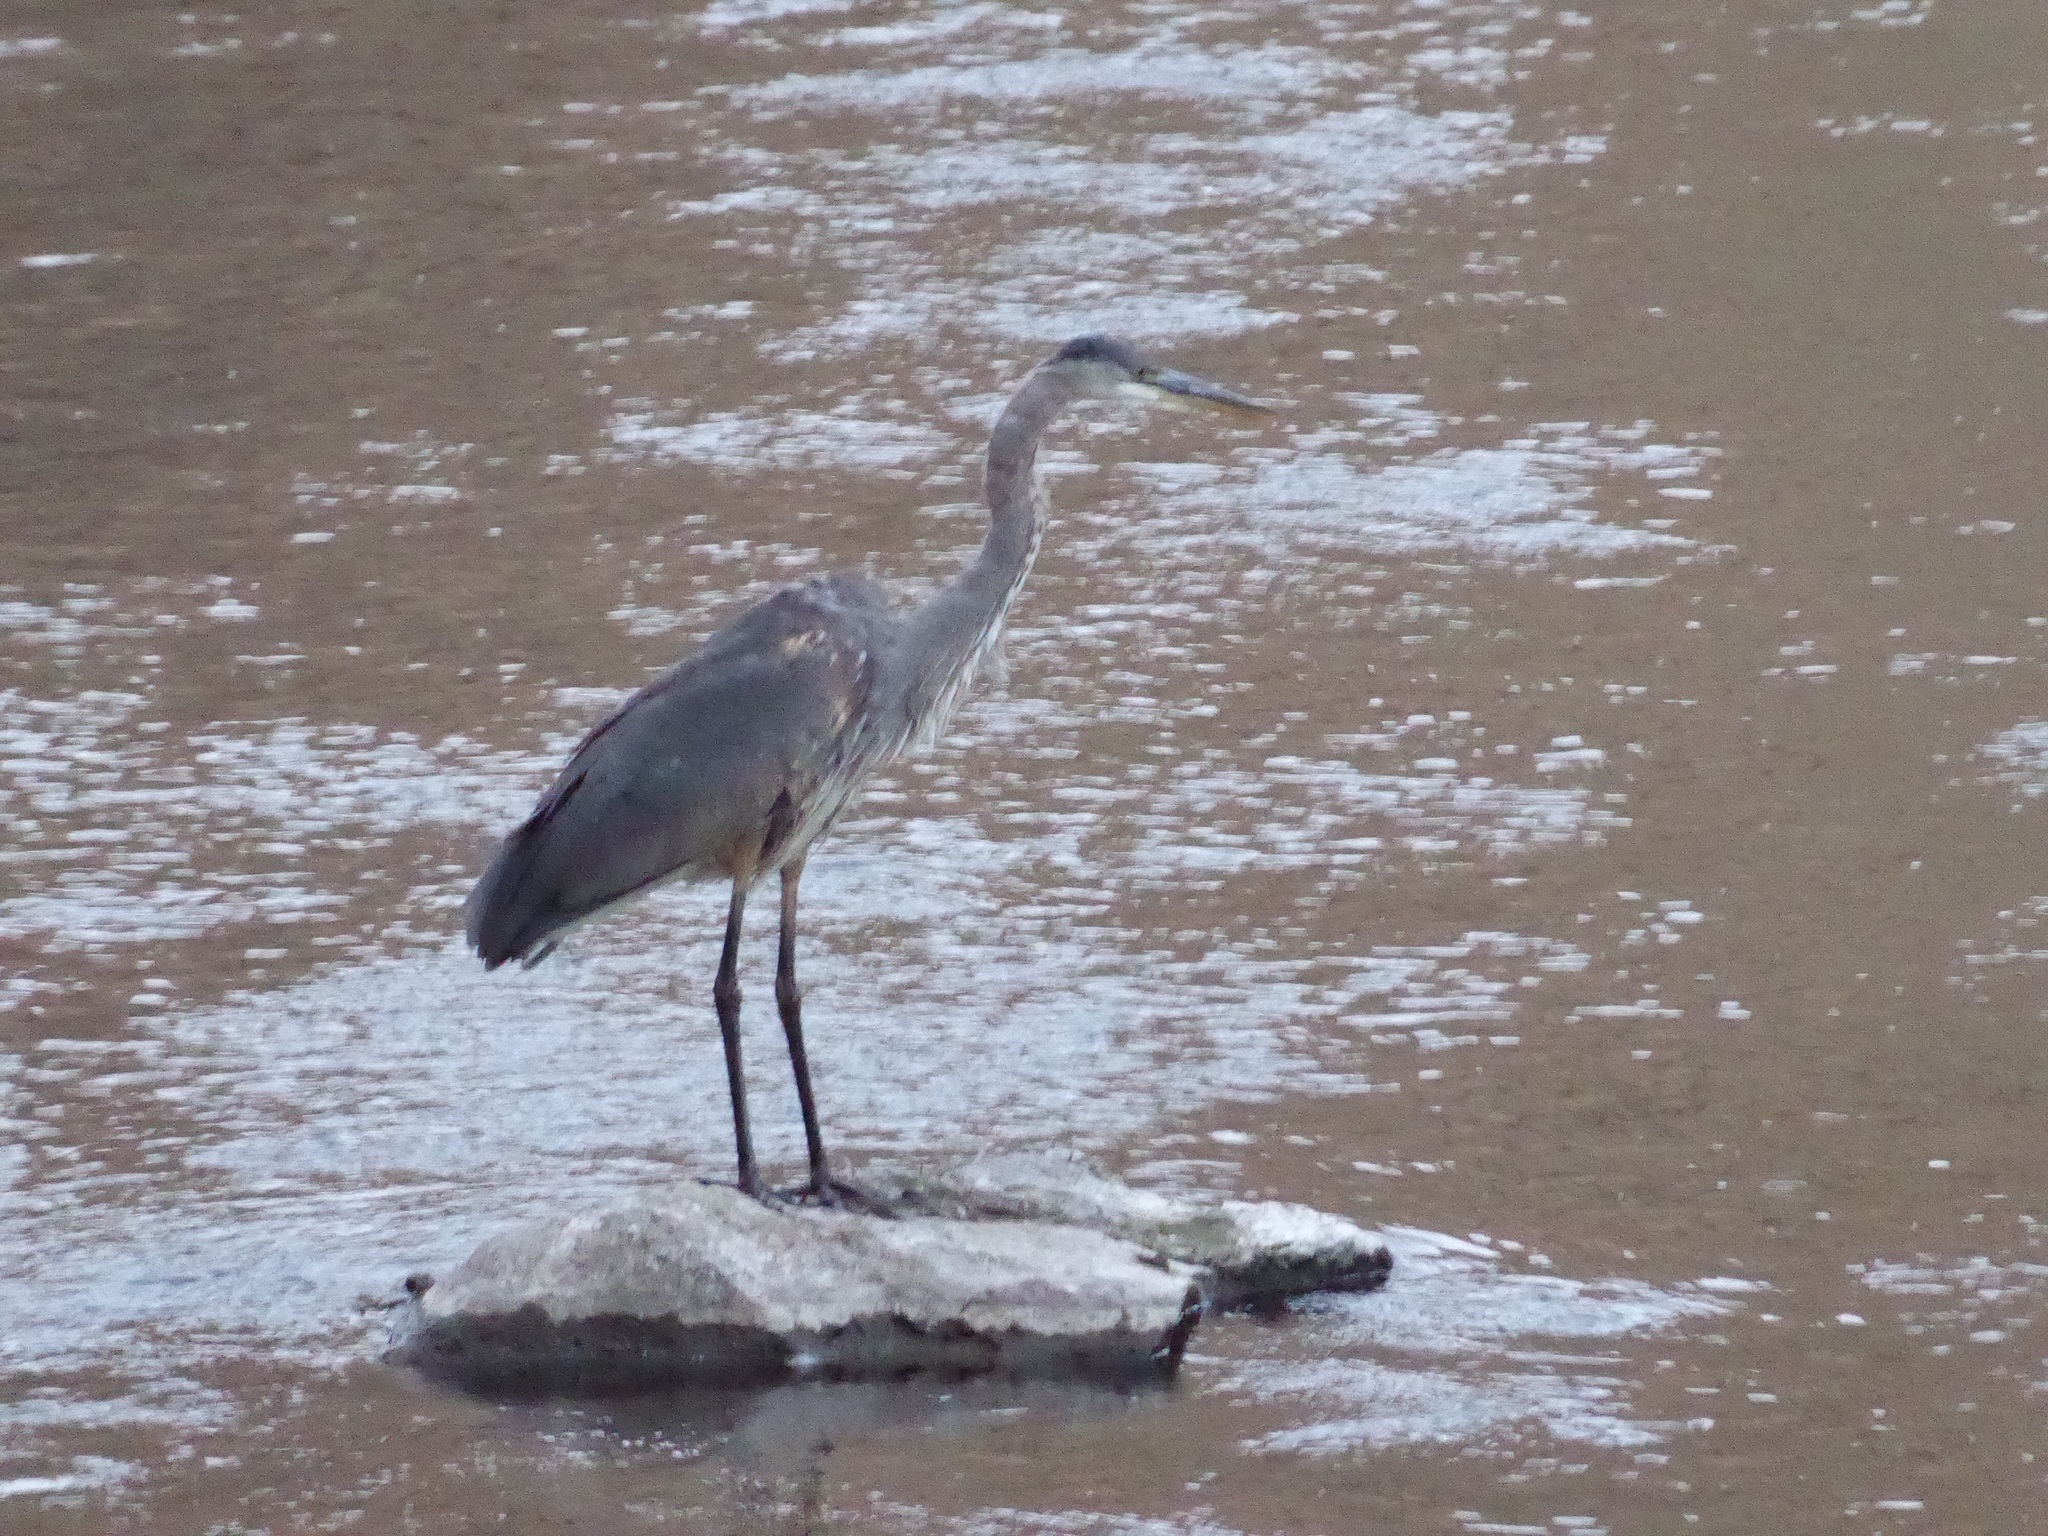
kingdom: Animalia
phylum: Chordata
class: Aves
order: Pelecaniformes
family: Ardeidae
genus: Ardea
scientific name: Ardea herodias
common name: Great blue heron
